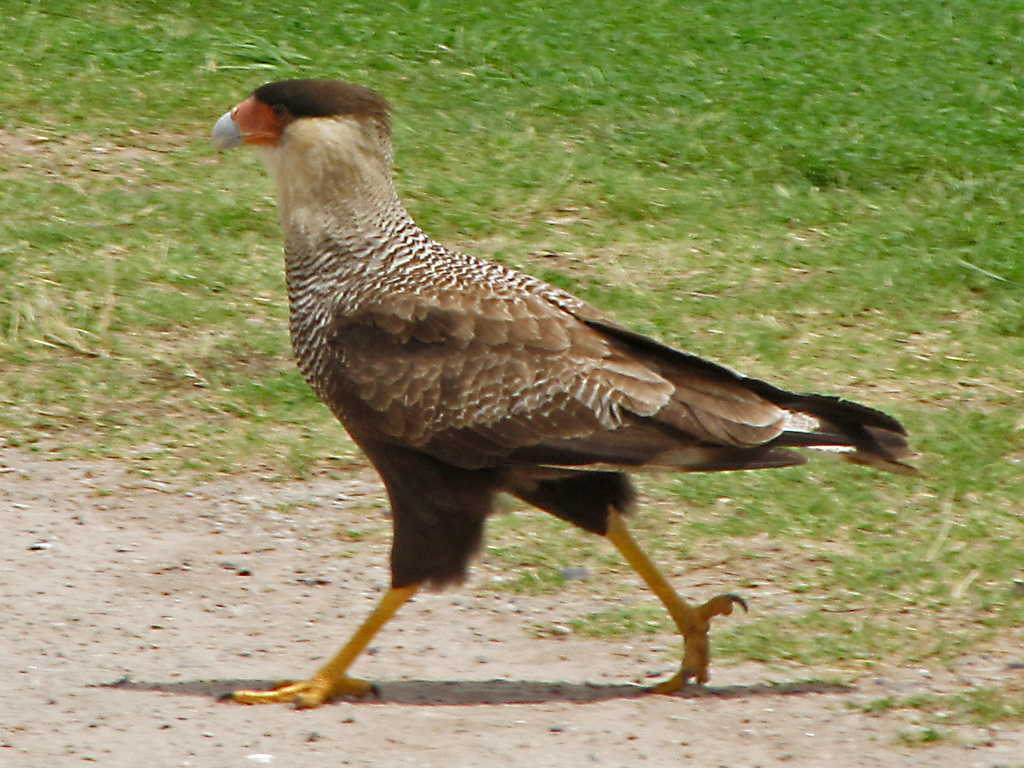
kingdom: Animalia
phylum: Chordata
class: Aves
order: Falconiformes
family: Falconidae
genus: Caracara
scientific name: Caracara plancus
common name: Southern caracara
